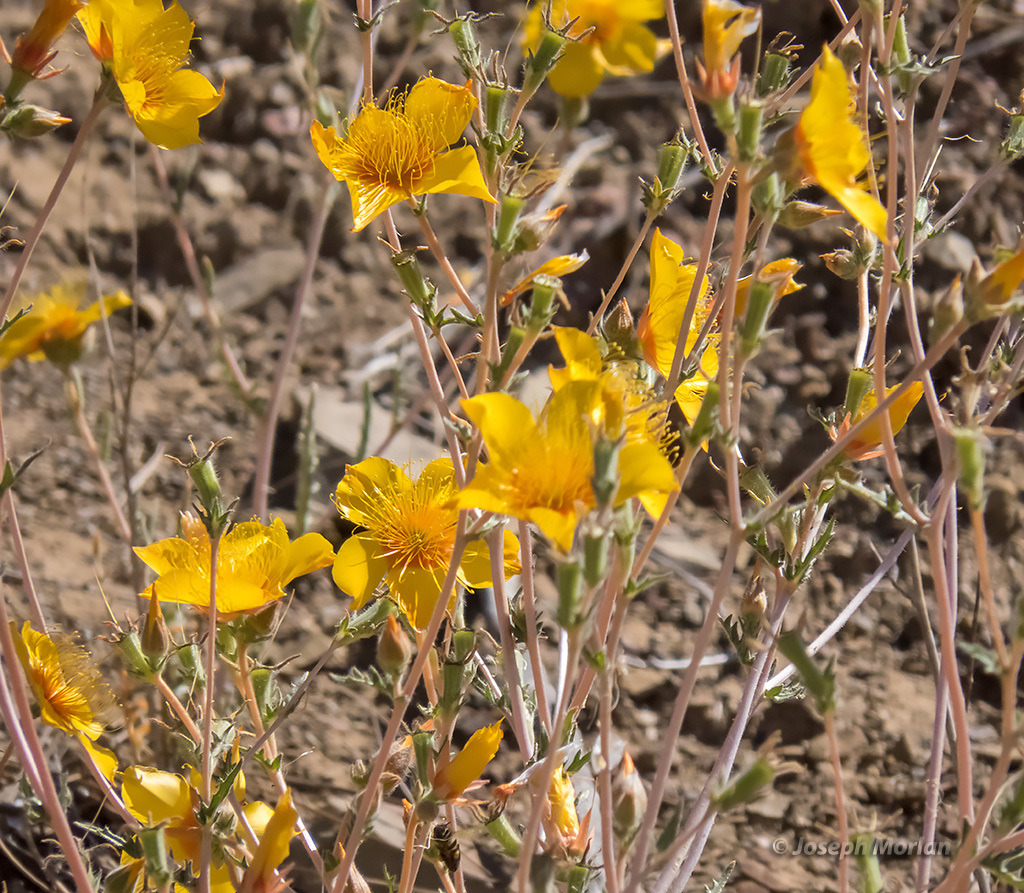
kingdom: Plantae
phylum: Tracheophyta
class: Magnoliopsida
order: Cornales
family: Loasaceae
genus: Mentzelia
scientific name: Mentzelia lindleyi
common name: Golden bartonia
